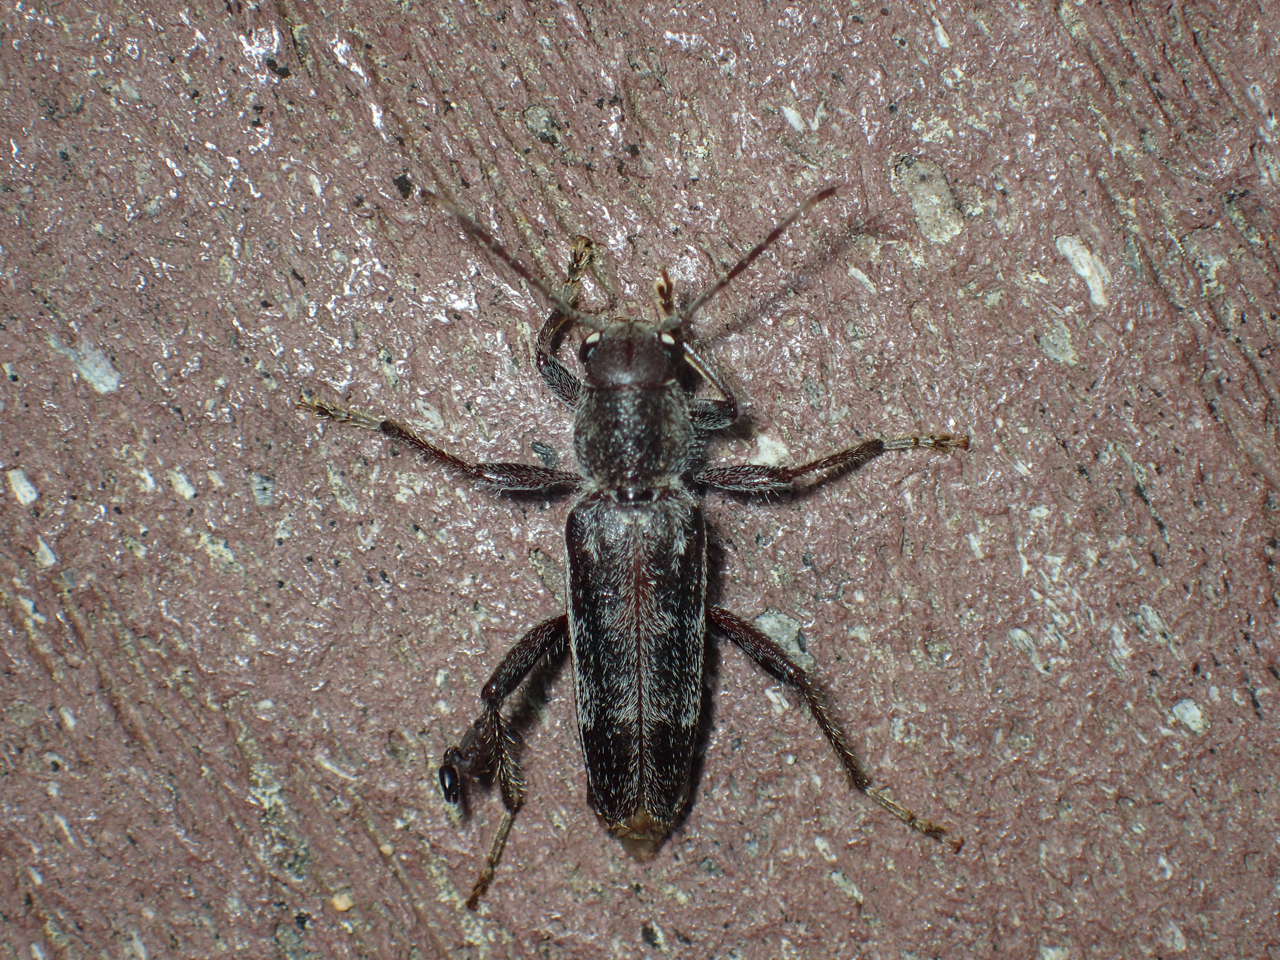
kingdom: Animalia
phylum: Arthropoda
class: Insecta
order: Coleoptera
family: Cerambycidae
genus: Xylotrechus
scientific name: Xylotrechus sagittatus
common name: Arrowhead borer
